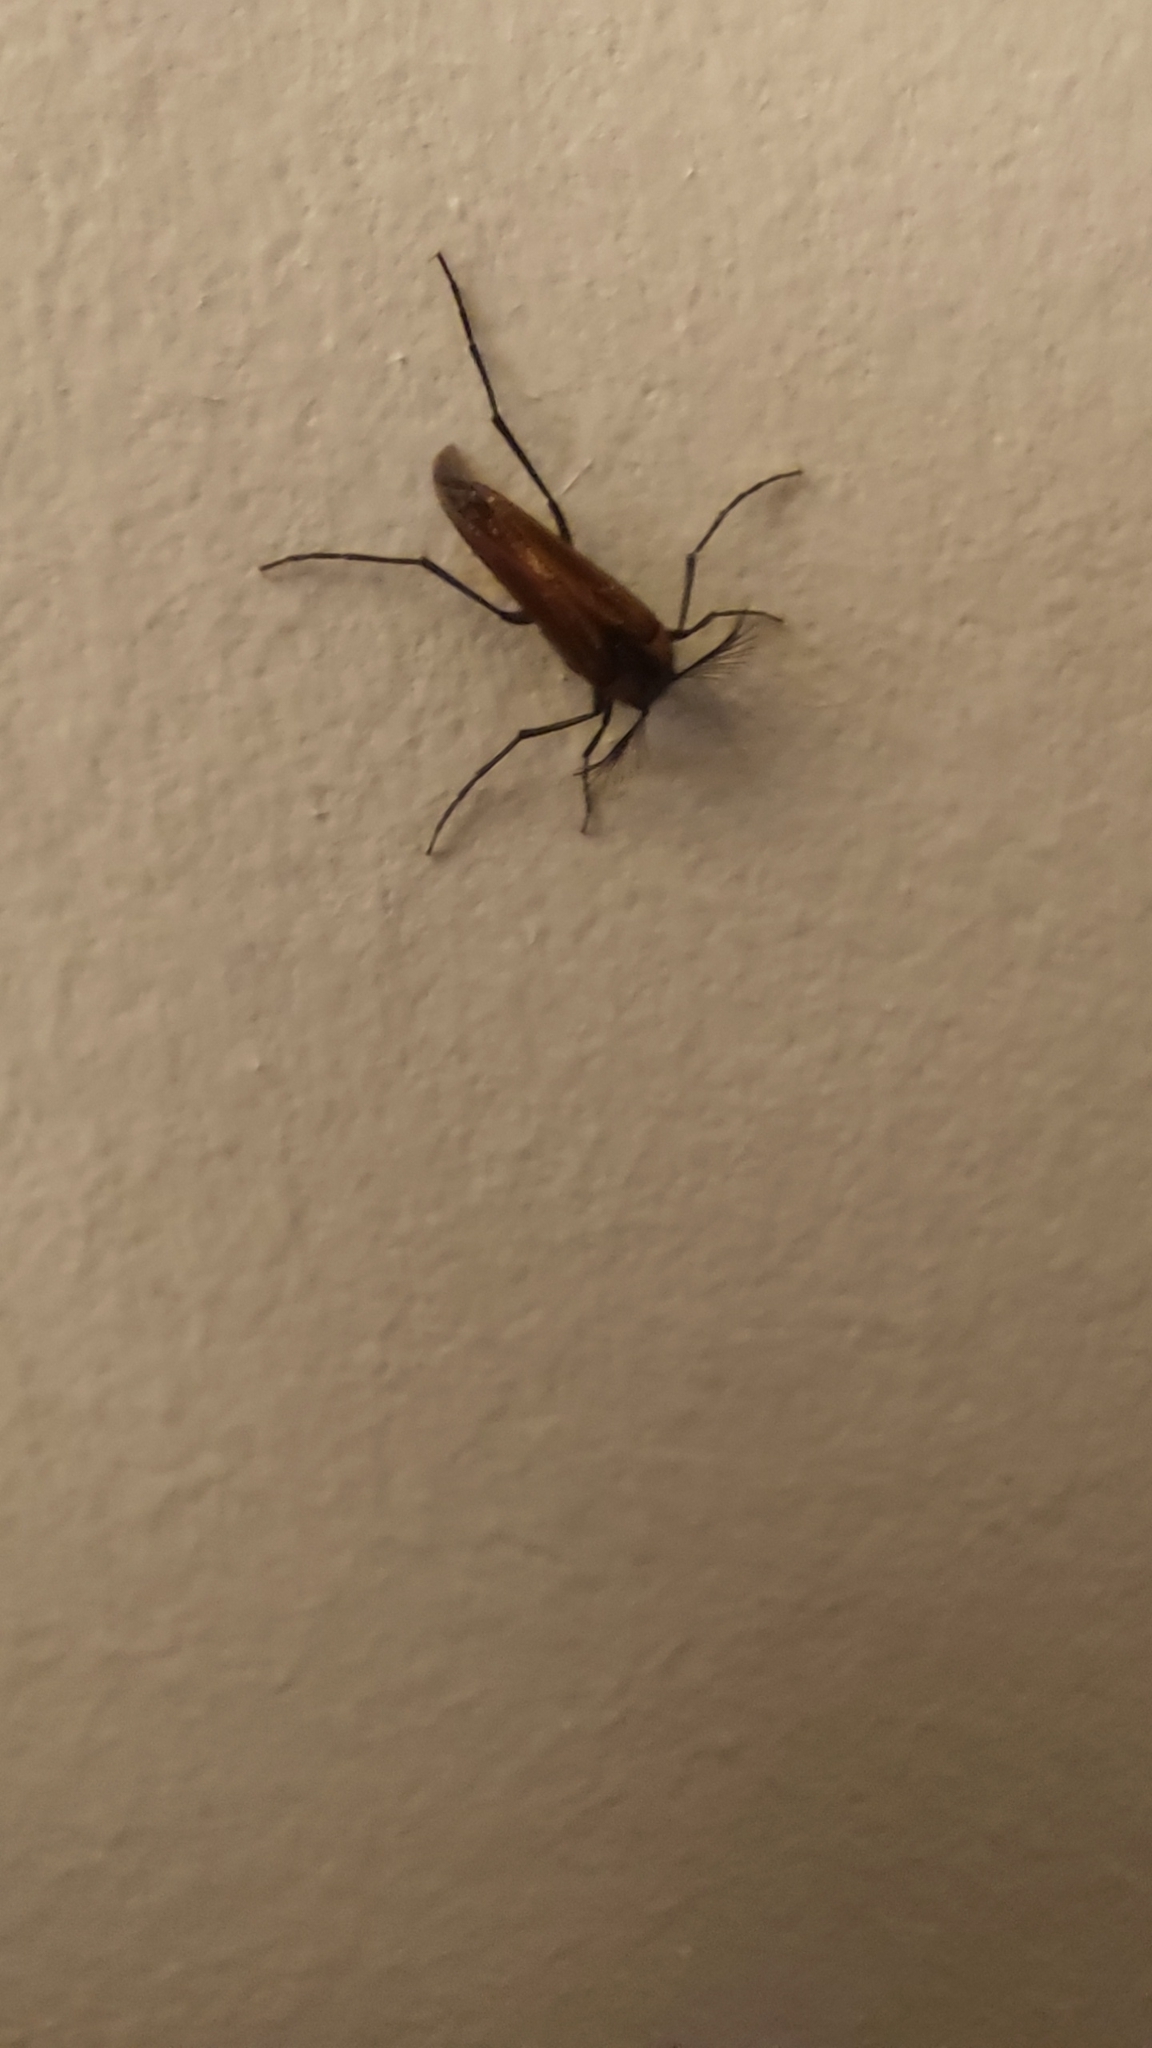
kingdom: Animalia
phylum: Arthropoda
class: Insecta
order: Coleoptera
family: Ripiphoridae
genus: Metoecus
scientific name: Metoecus paradoxus
